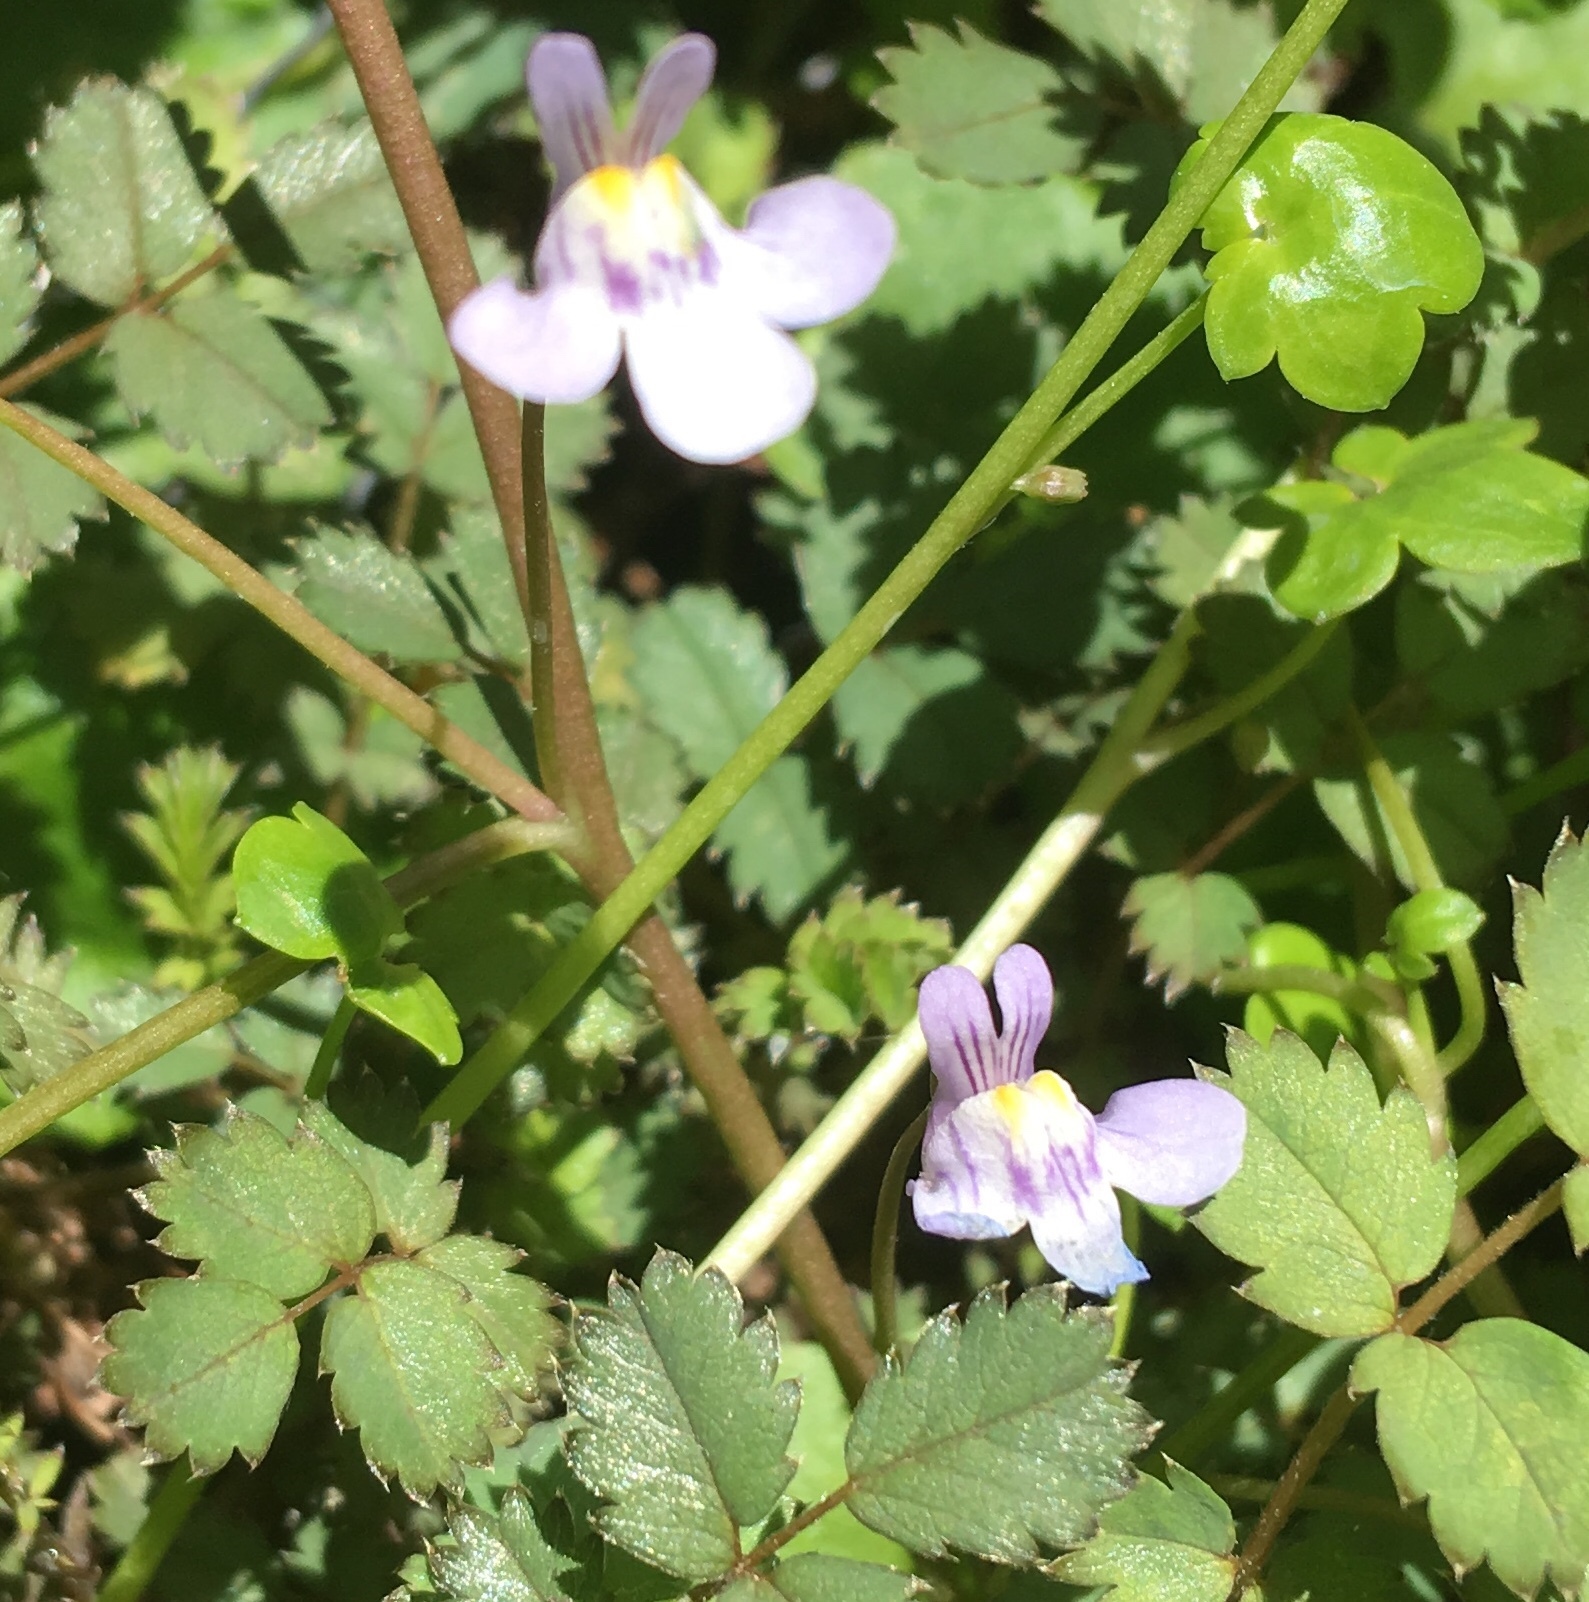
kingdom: Plantae
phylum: Tracheophyta
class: Magnoliopsida
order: Lamiales
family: Plantaginaceae
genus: Cymbalaria
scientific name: Cymbalaria muralis
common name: Ivy-leaved toadflax
